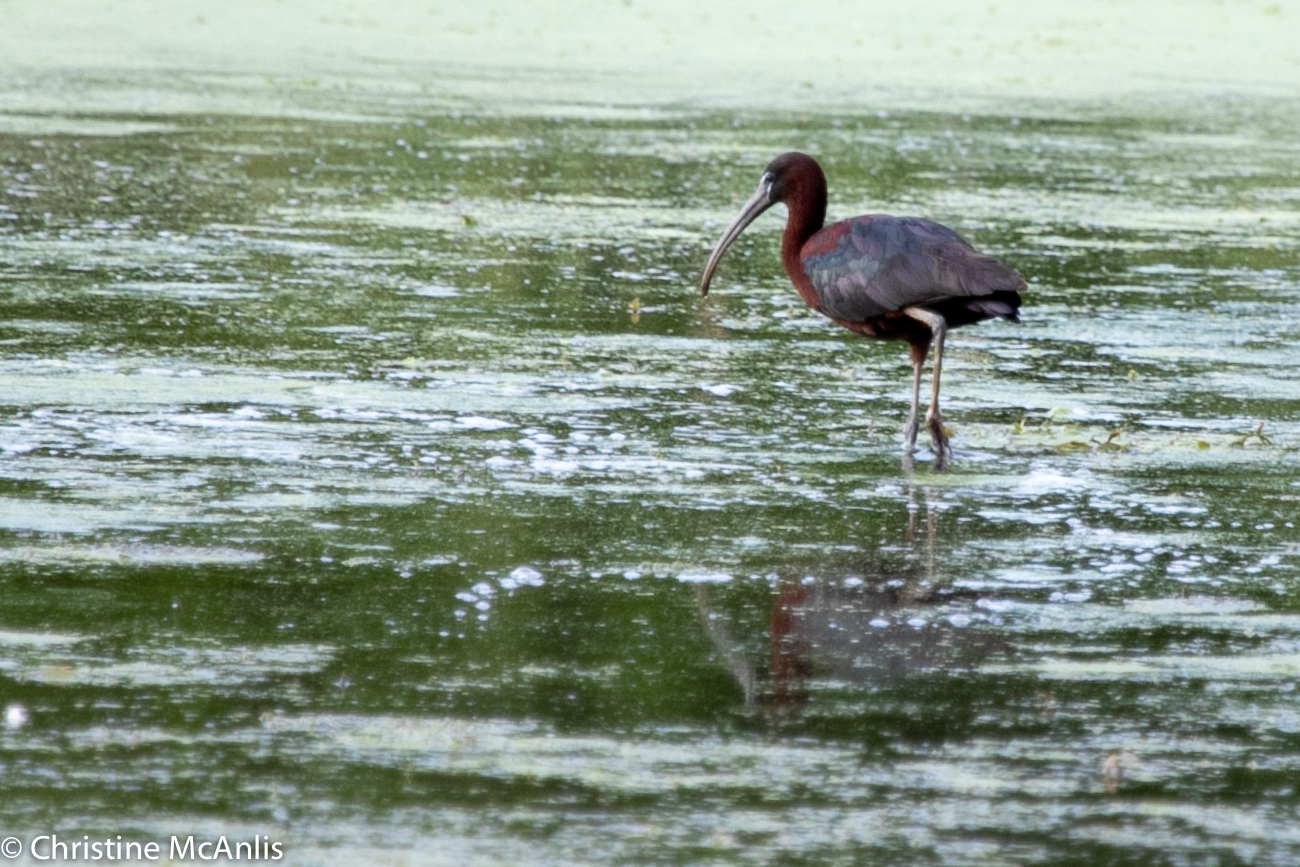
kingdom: Animalia
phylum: Chordata
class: Aves
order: Pelecaniformes
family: Threskiornithidae
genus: Plegadis
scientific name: Plegadis falcinellus
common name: Glossy ibis
